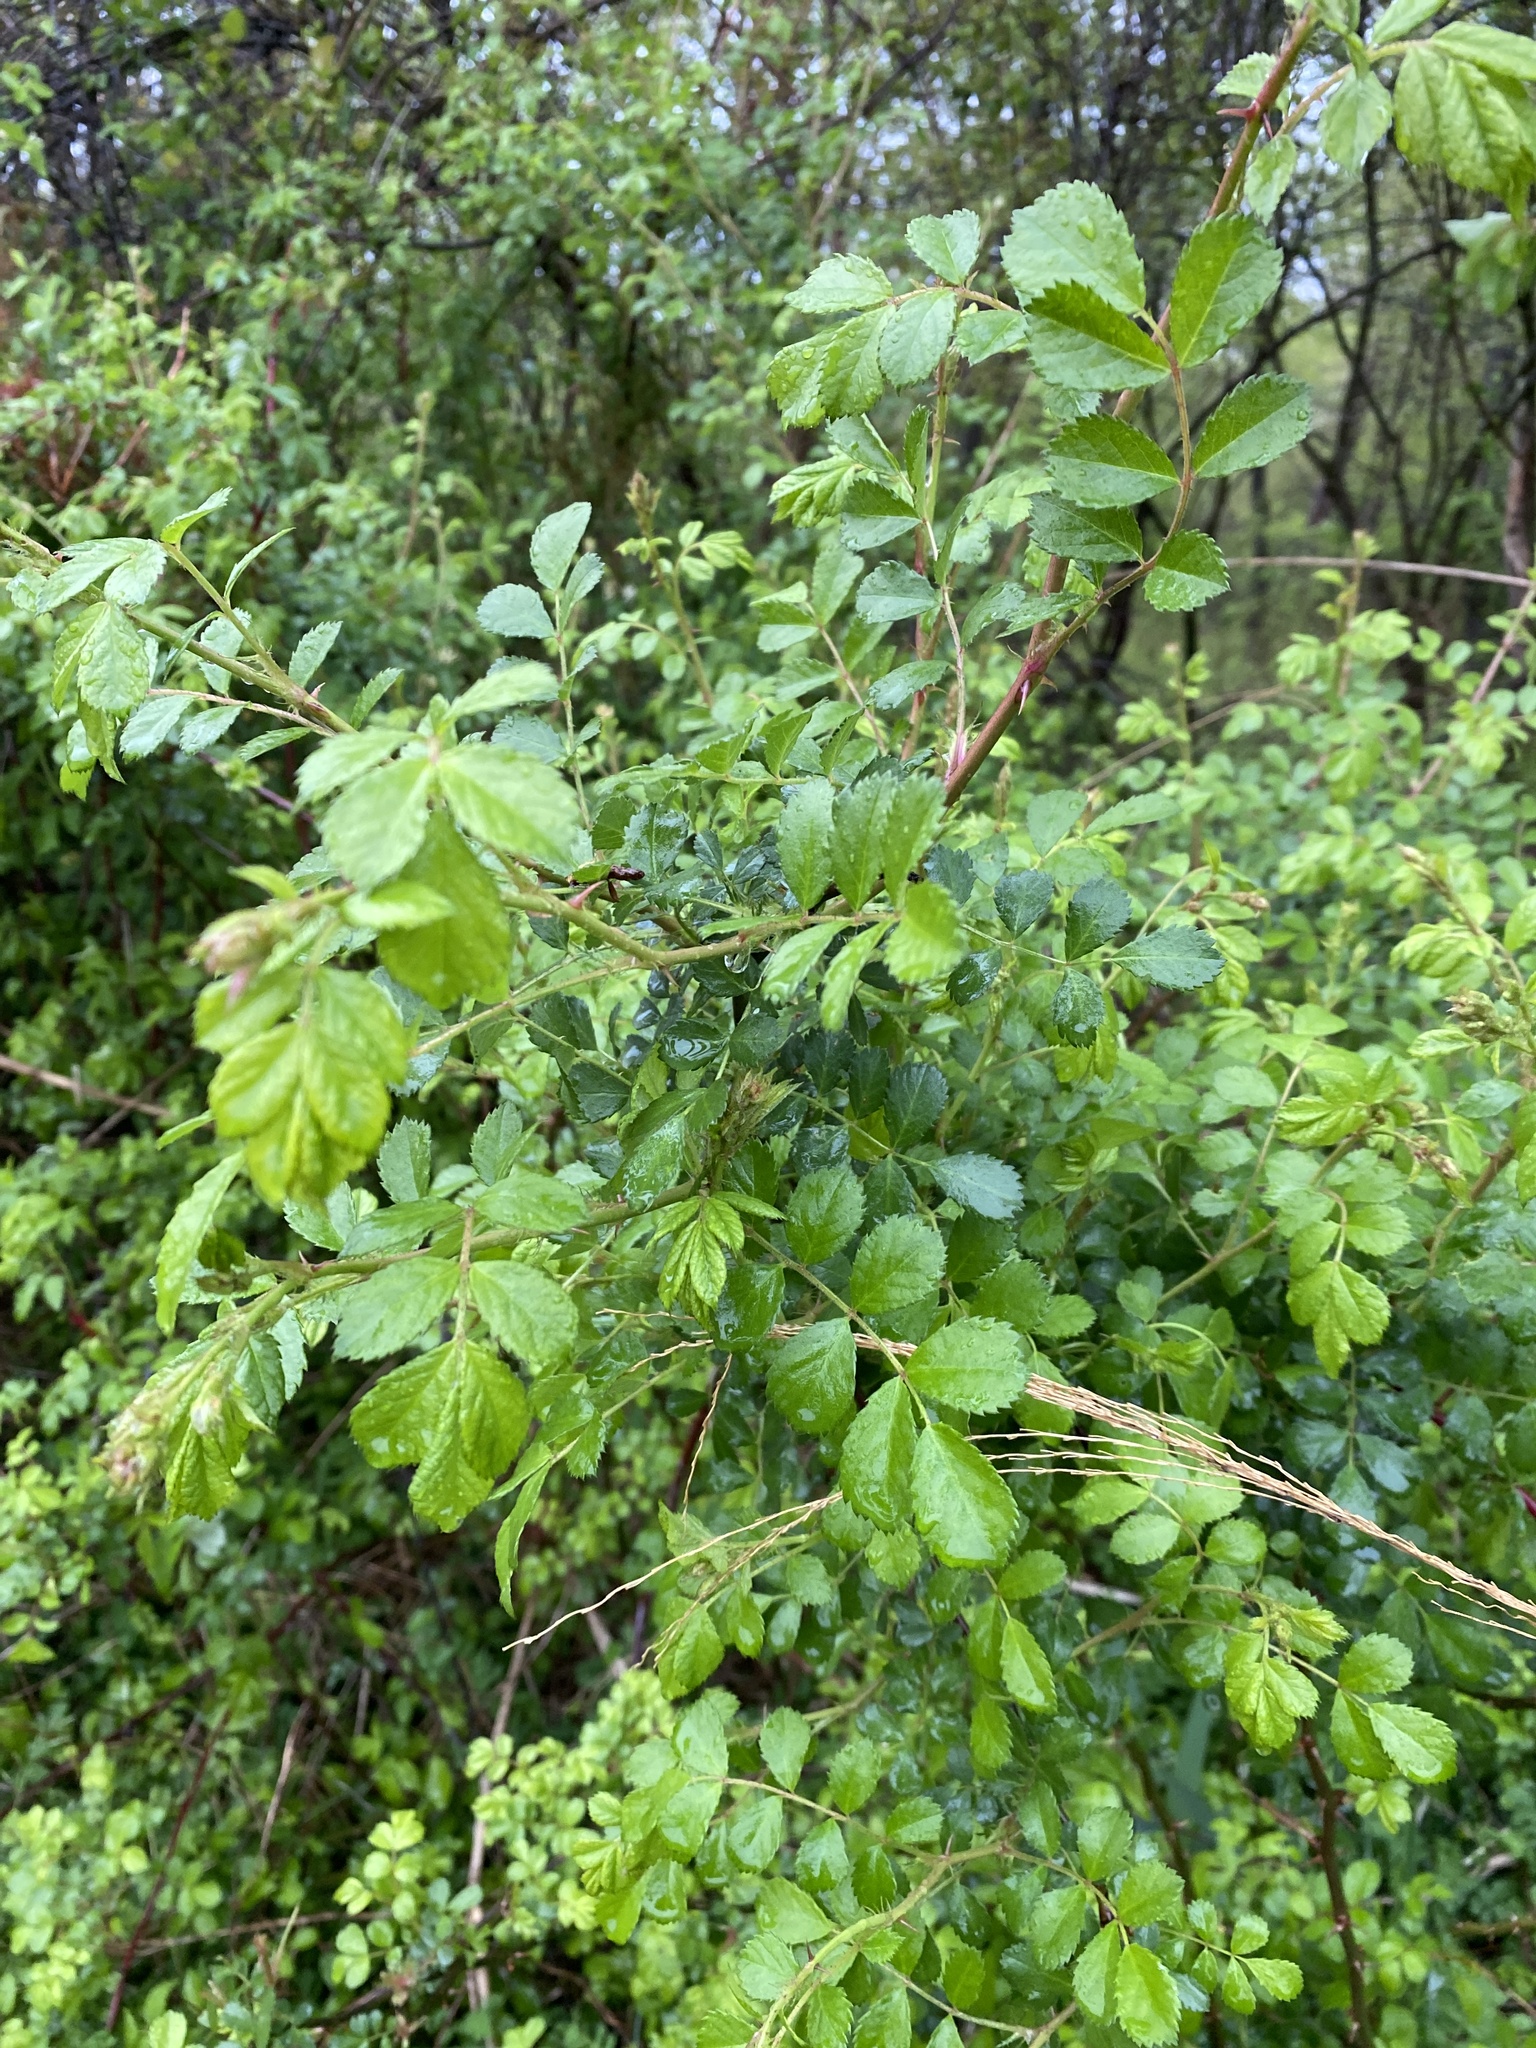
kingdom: Plantae
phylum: Tracheophyta
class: Magnoliopsida
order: Rosales
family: Rosaceae
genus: Rosa
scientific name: Rosa multiflora
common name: Multiflora rose
